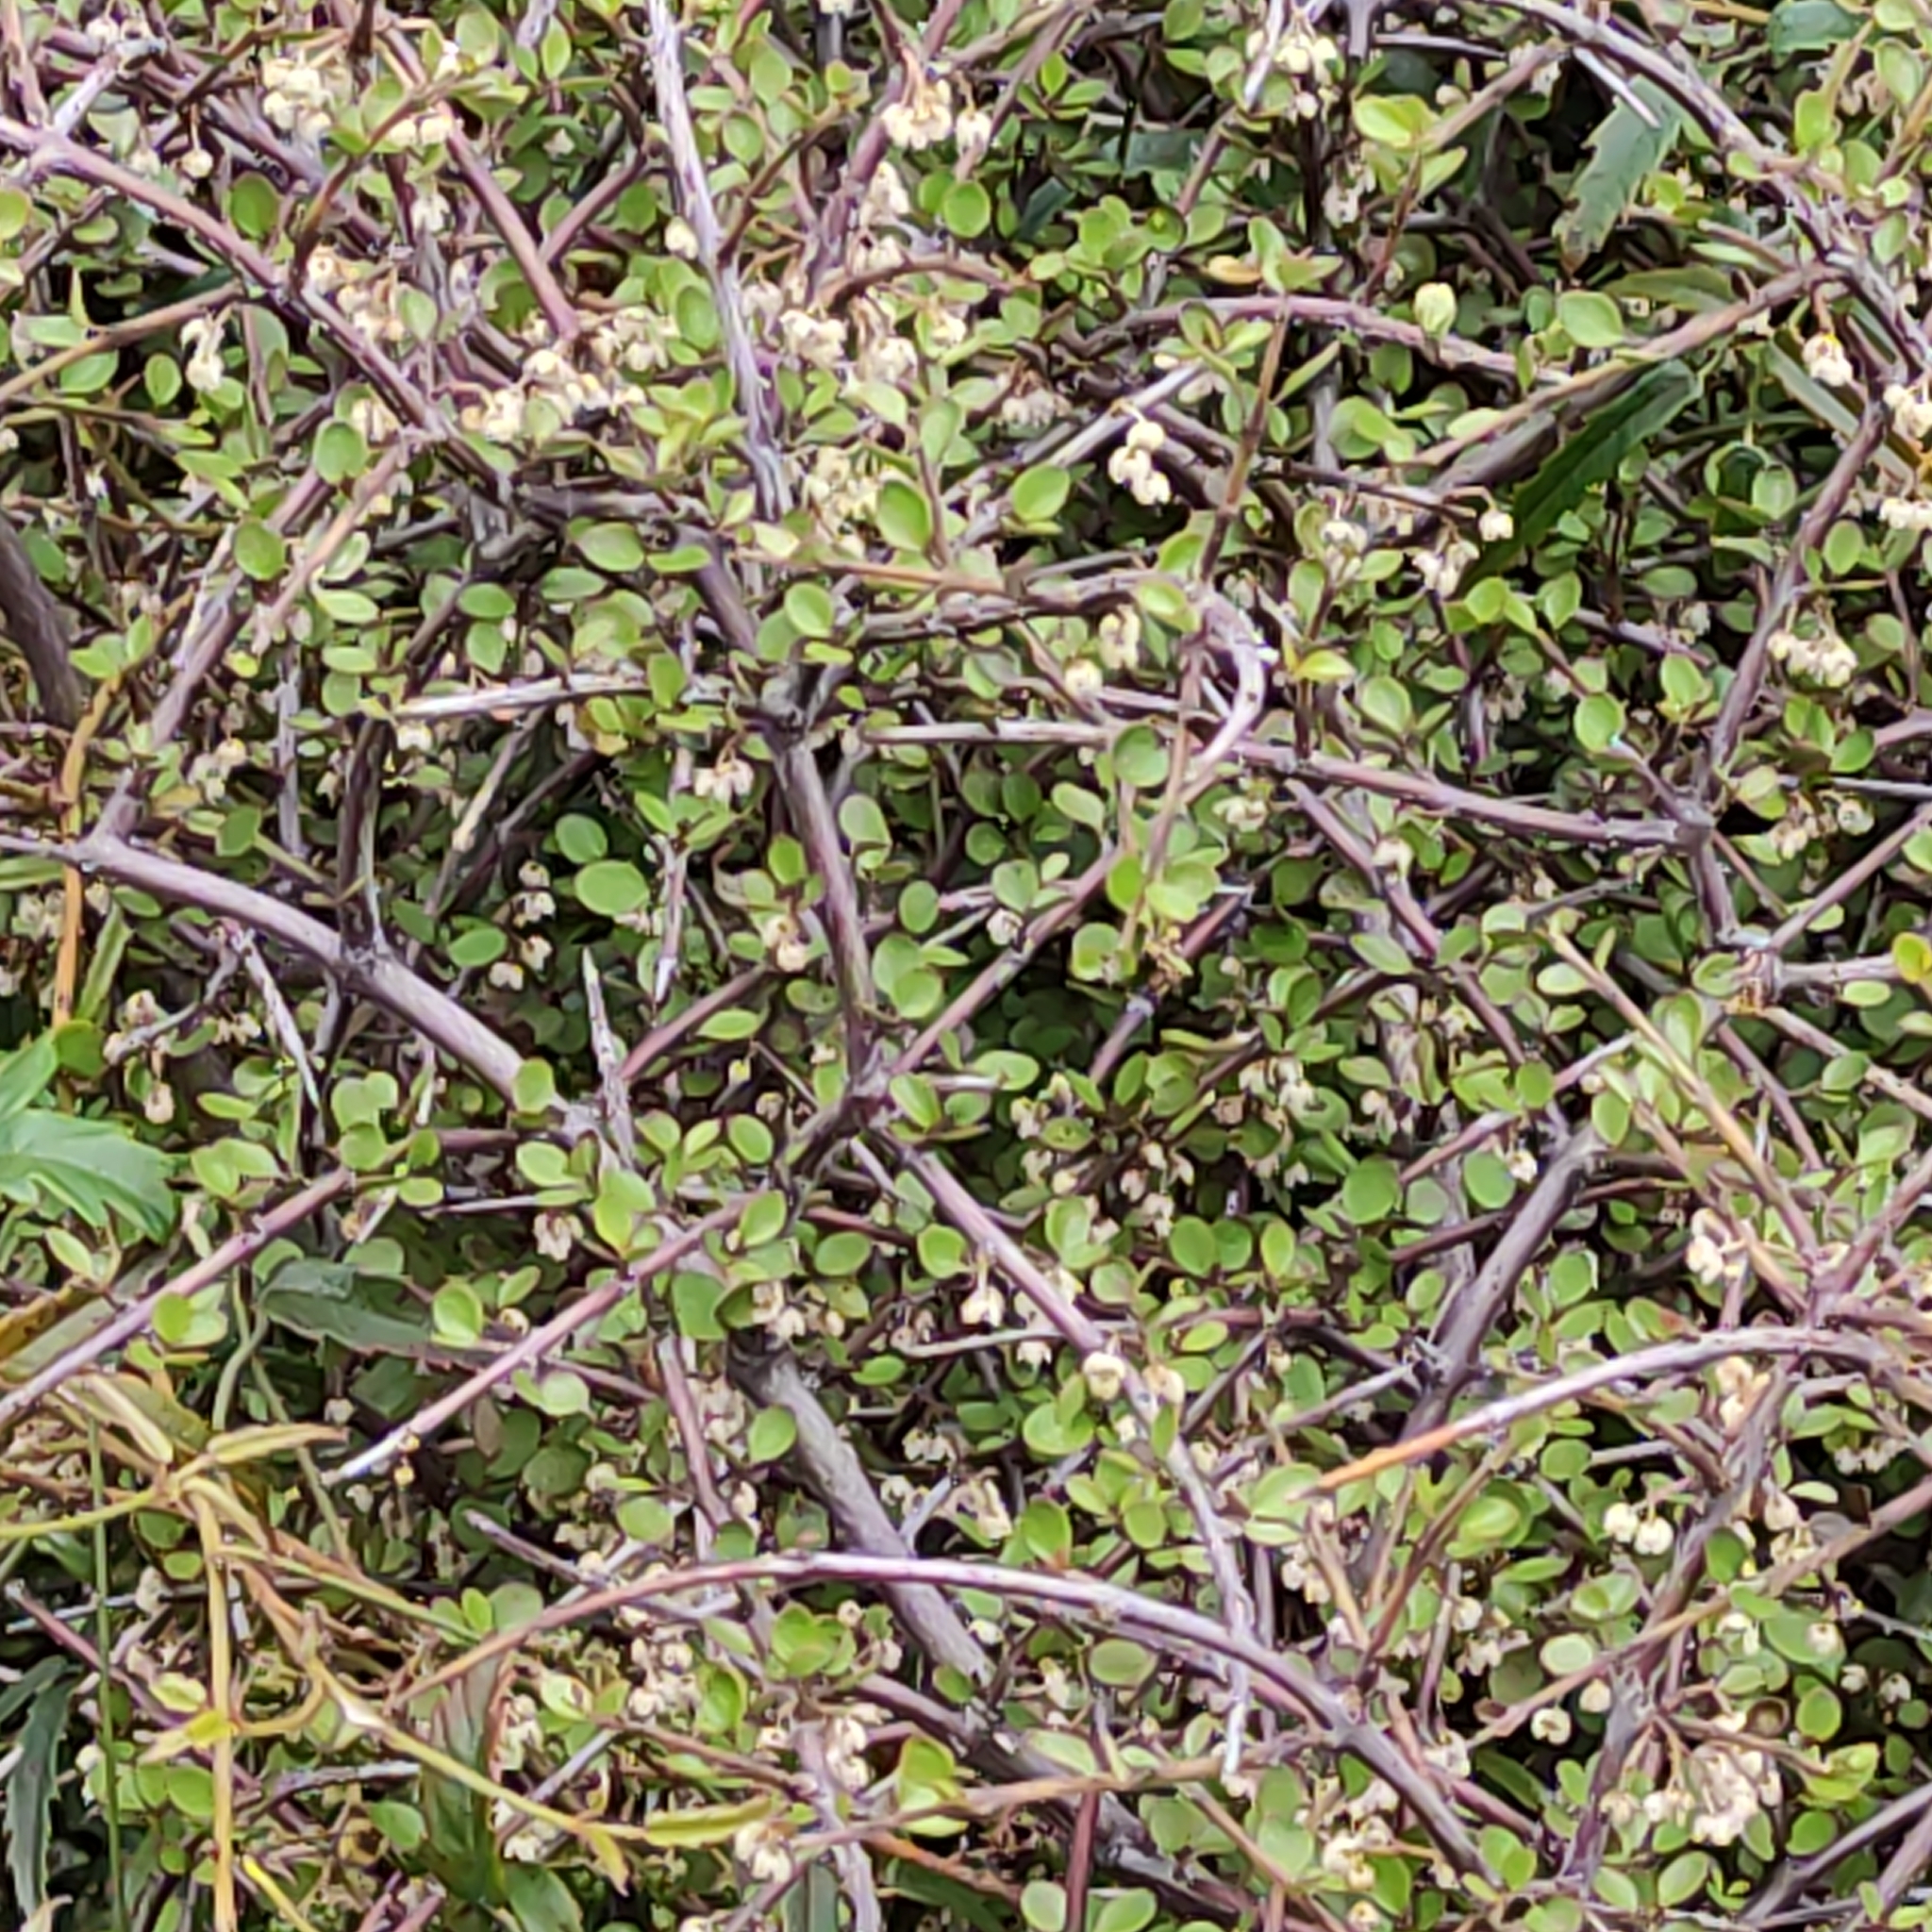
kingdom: Plantae
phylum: Tracheophyta
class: Magnoliopsida
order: Oxalidales
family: Elaeocarpaceae
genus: Aristotelia
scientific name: Aristotelia fruticosa
